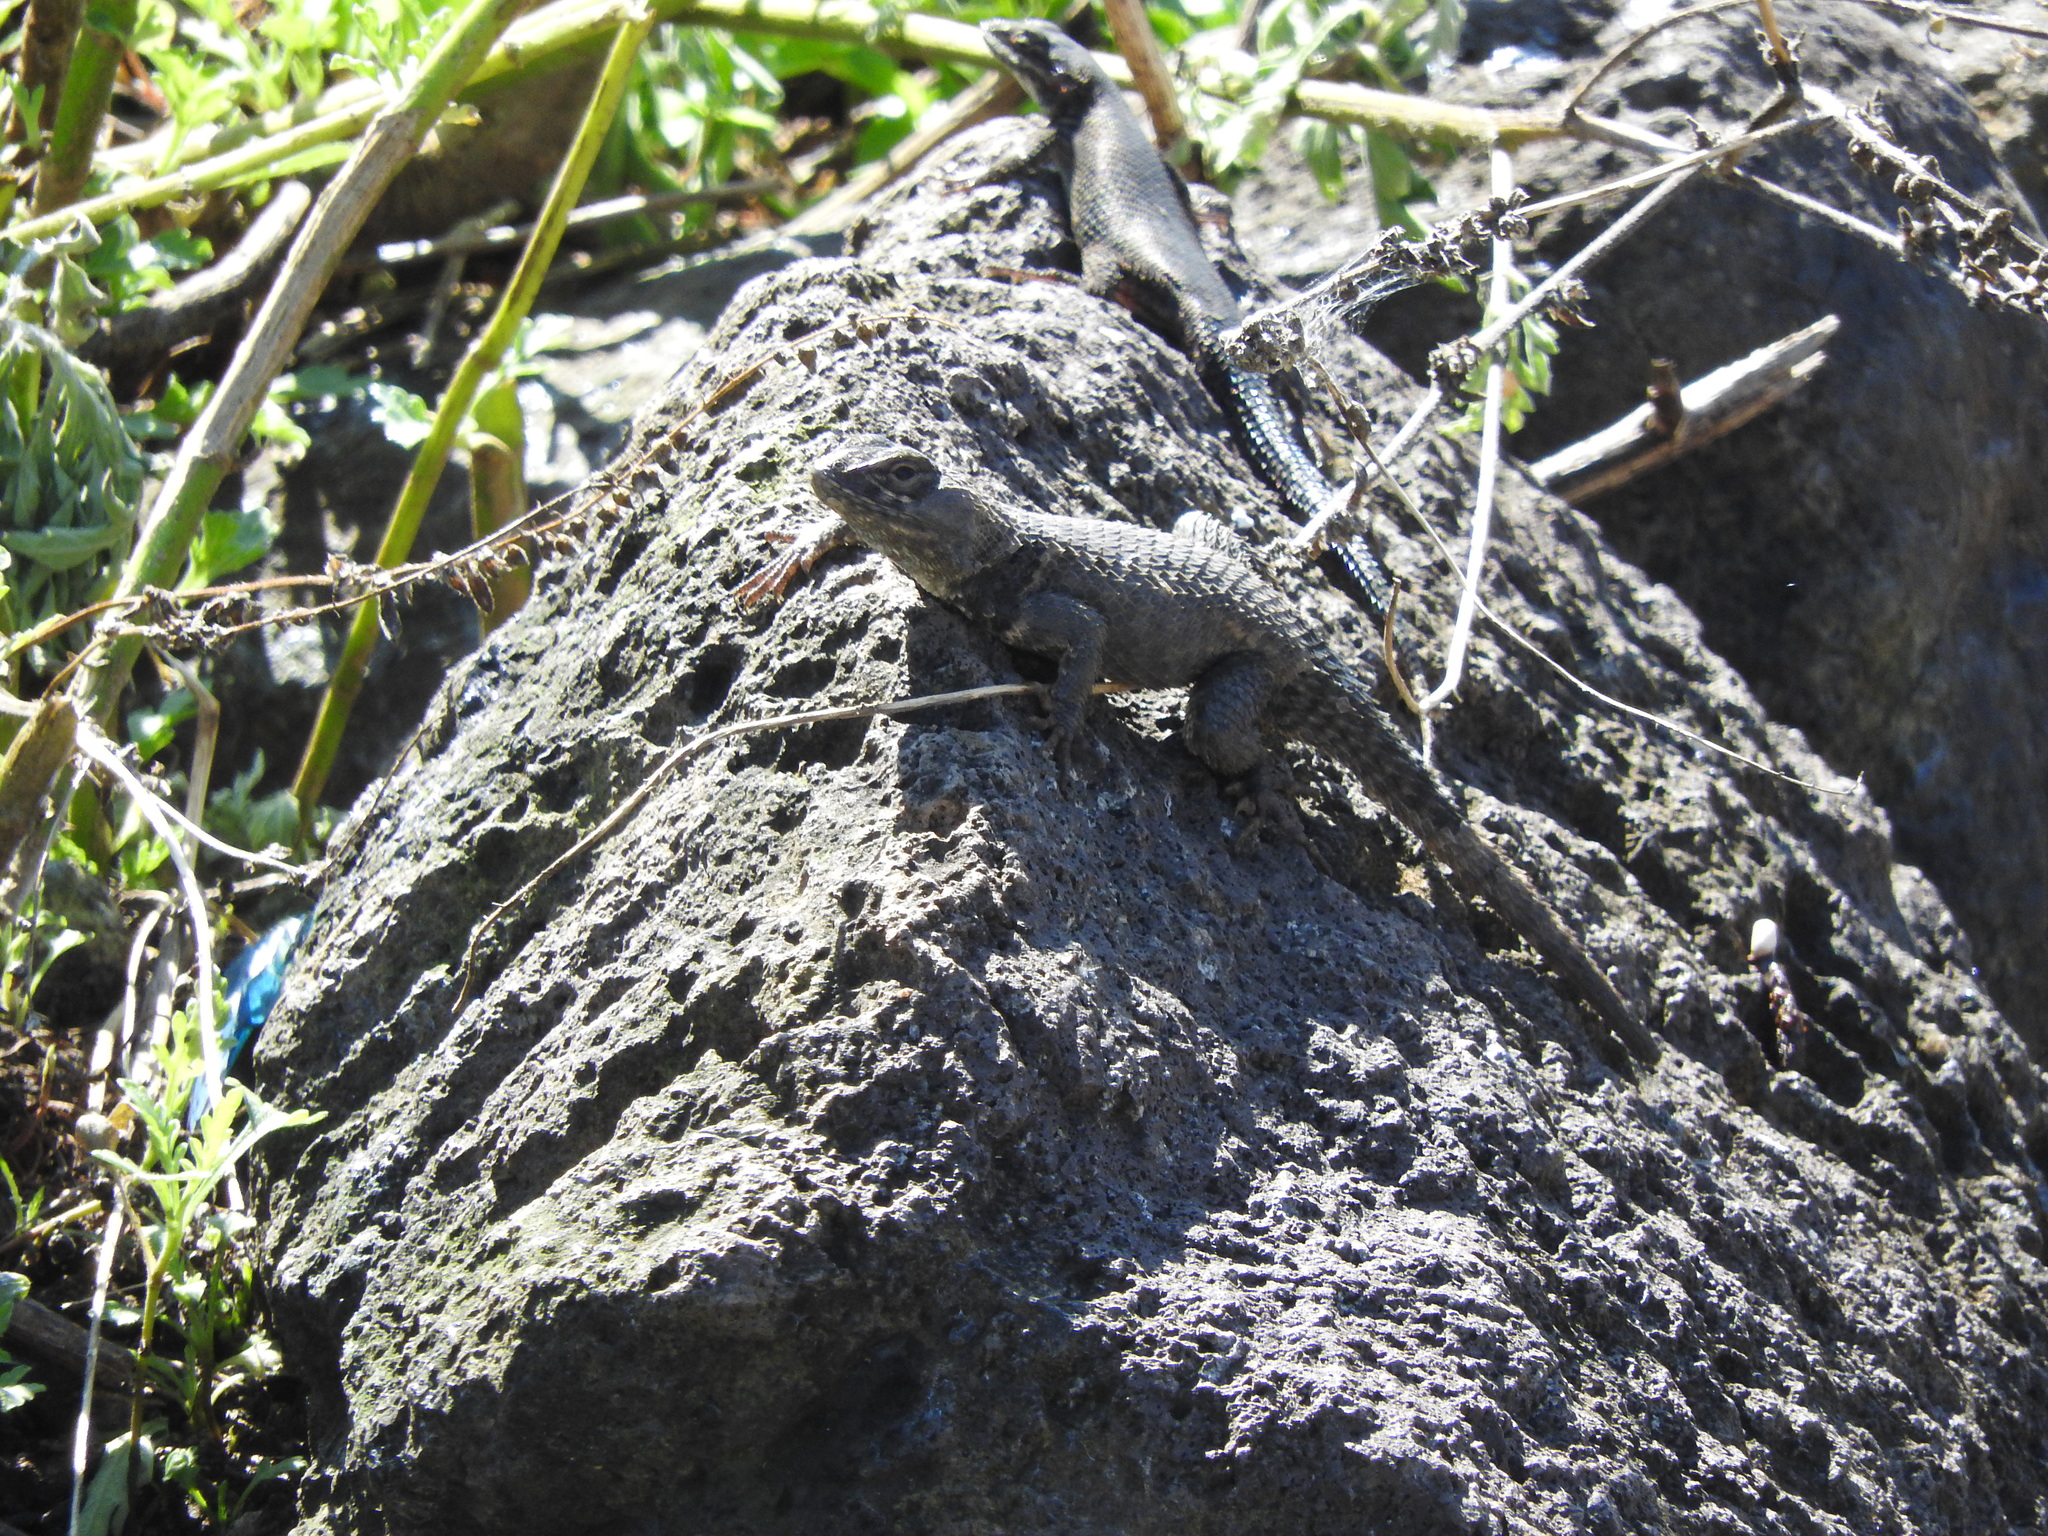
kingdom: Animalia
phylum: Chordata
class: Squamata
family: Phrynosomatidae
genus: Sceloporus
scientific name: Sceloporus torquatus
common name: Central plateau torquate lizard [melanogaster]
